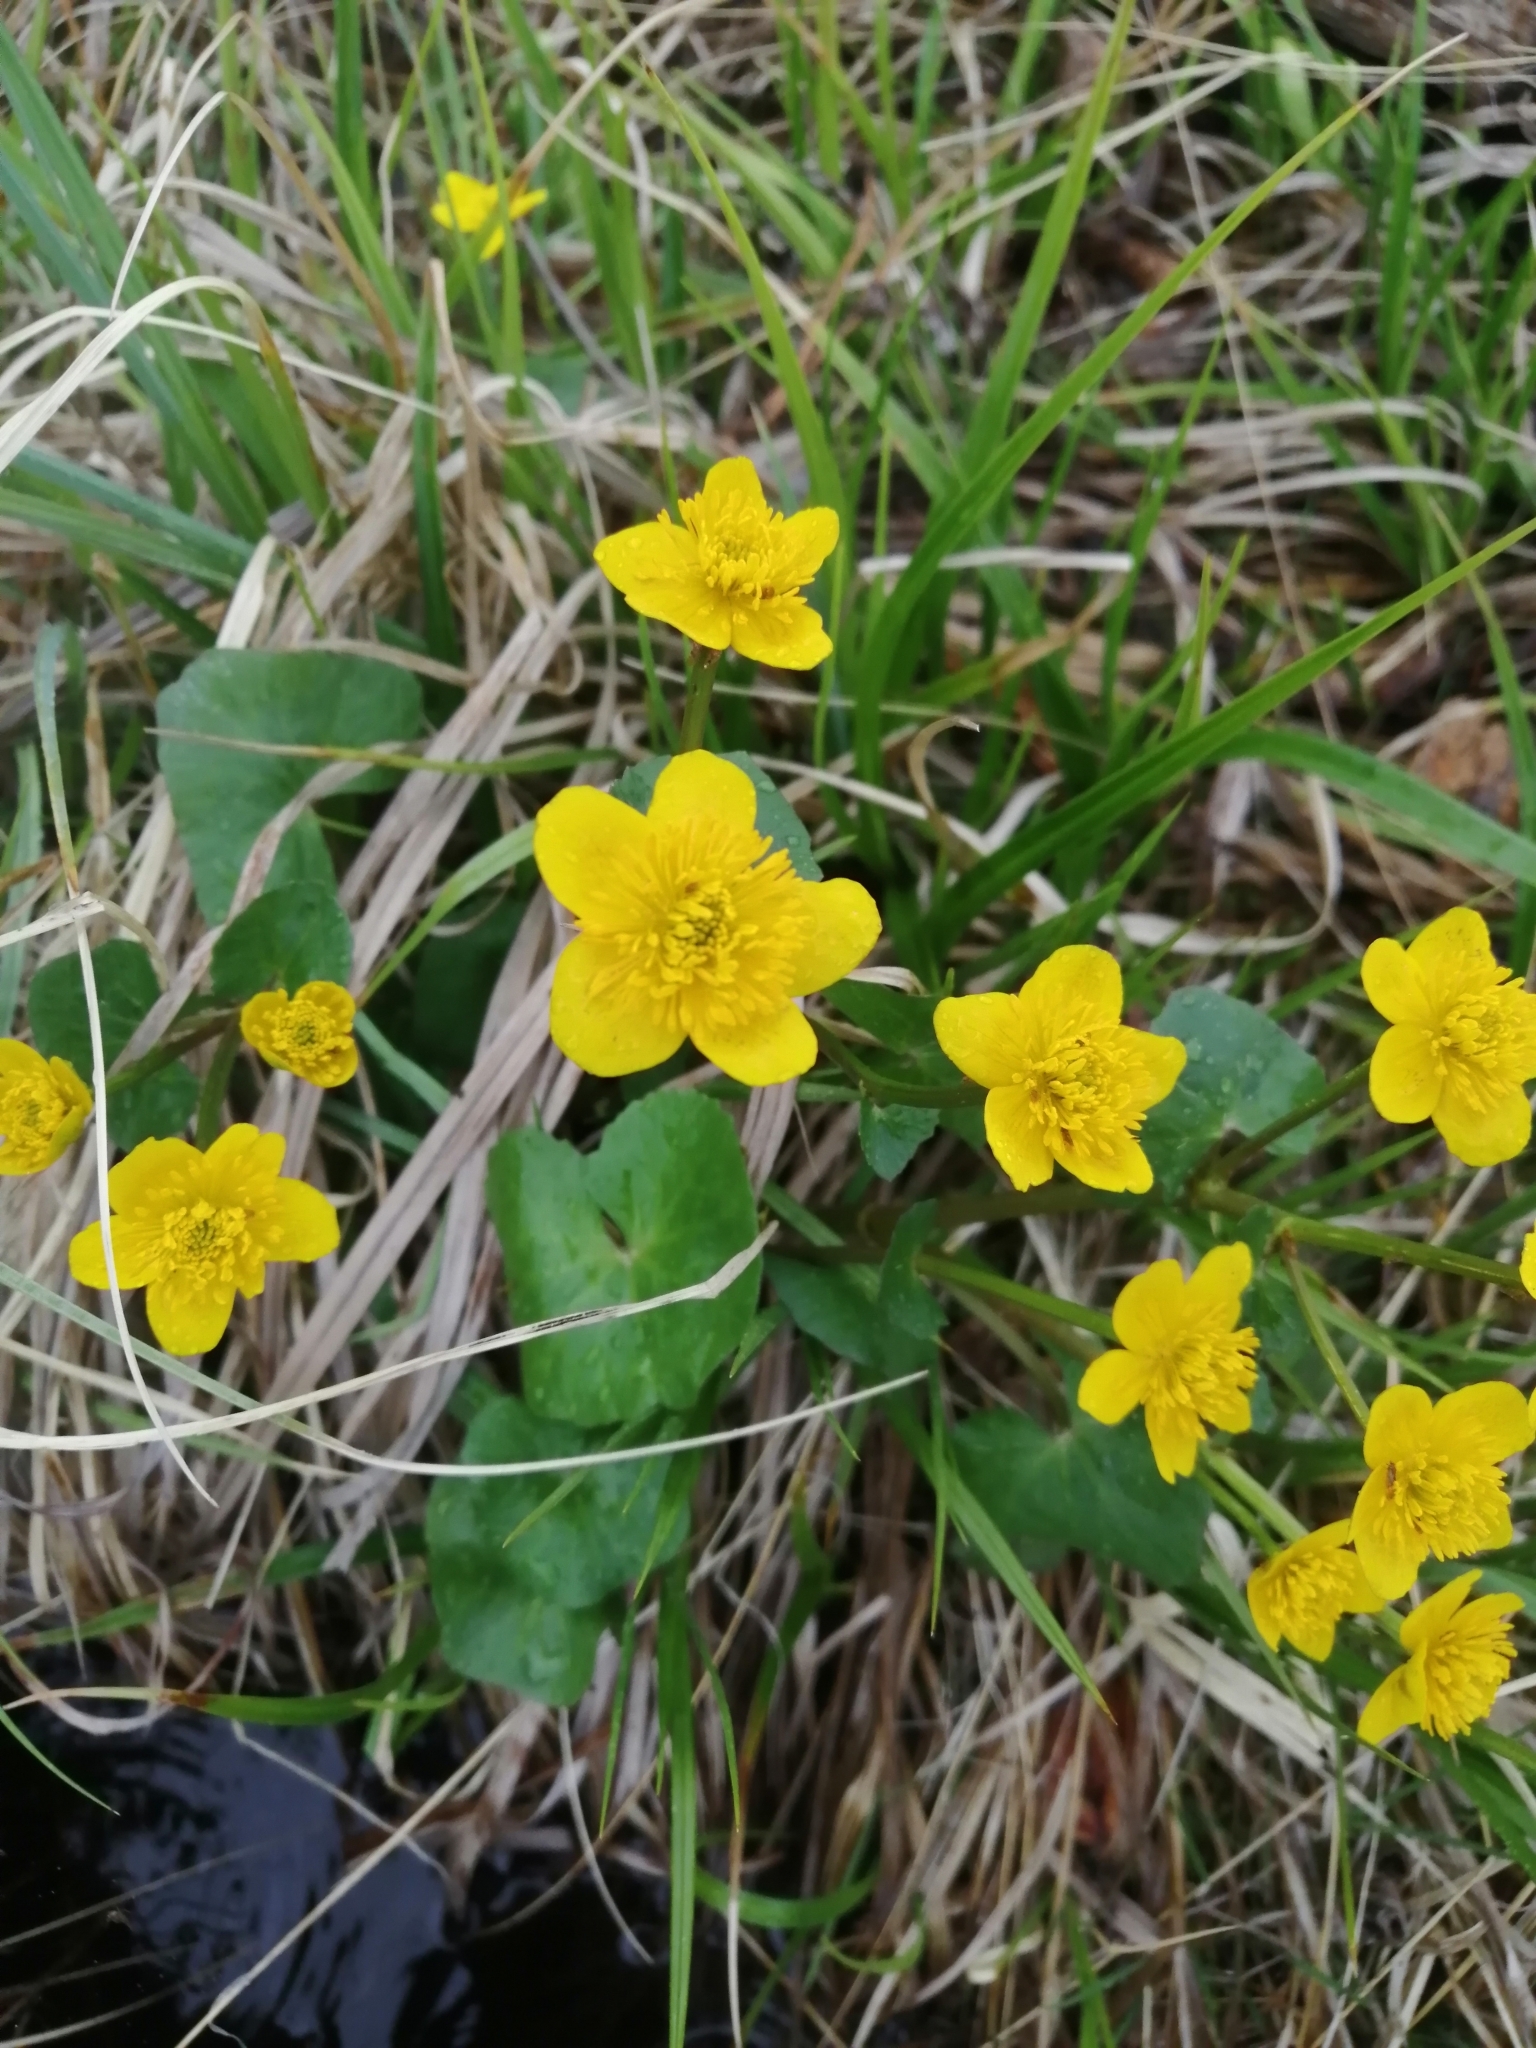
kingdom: Plantae
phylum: Tracheophyta
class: Magnoliopsida
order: Ranunculales
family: Ranunculaceae
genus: Caltha
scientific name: Caltha palustris
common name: Marsh marigold
